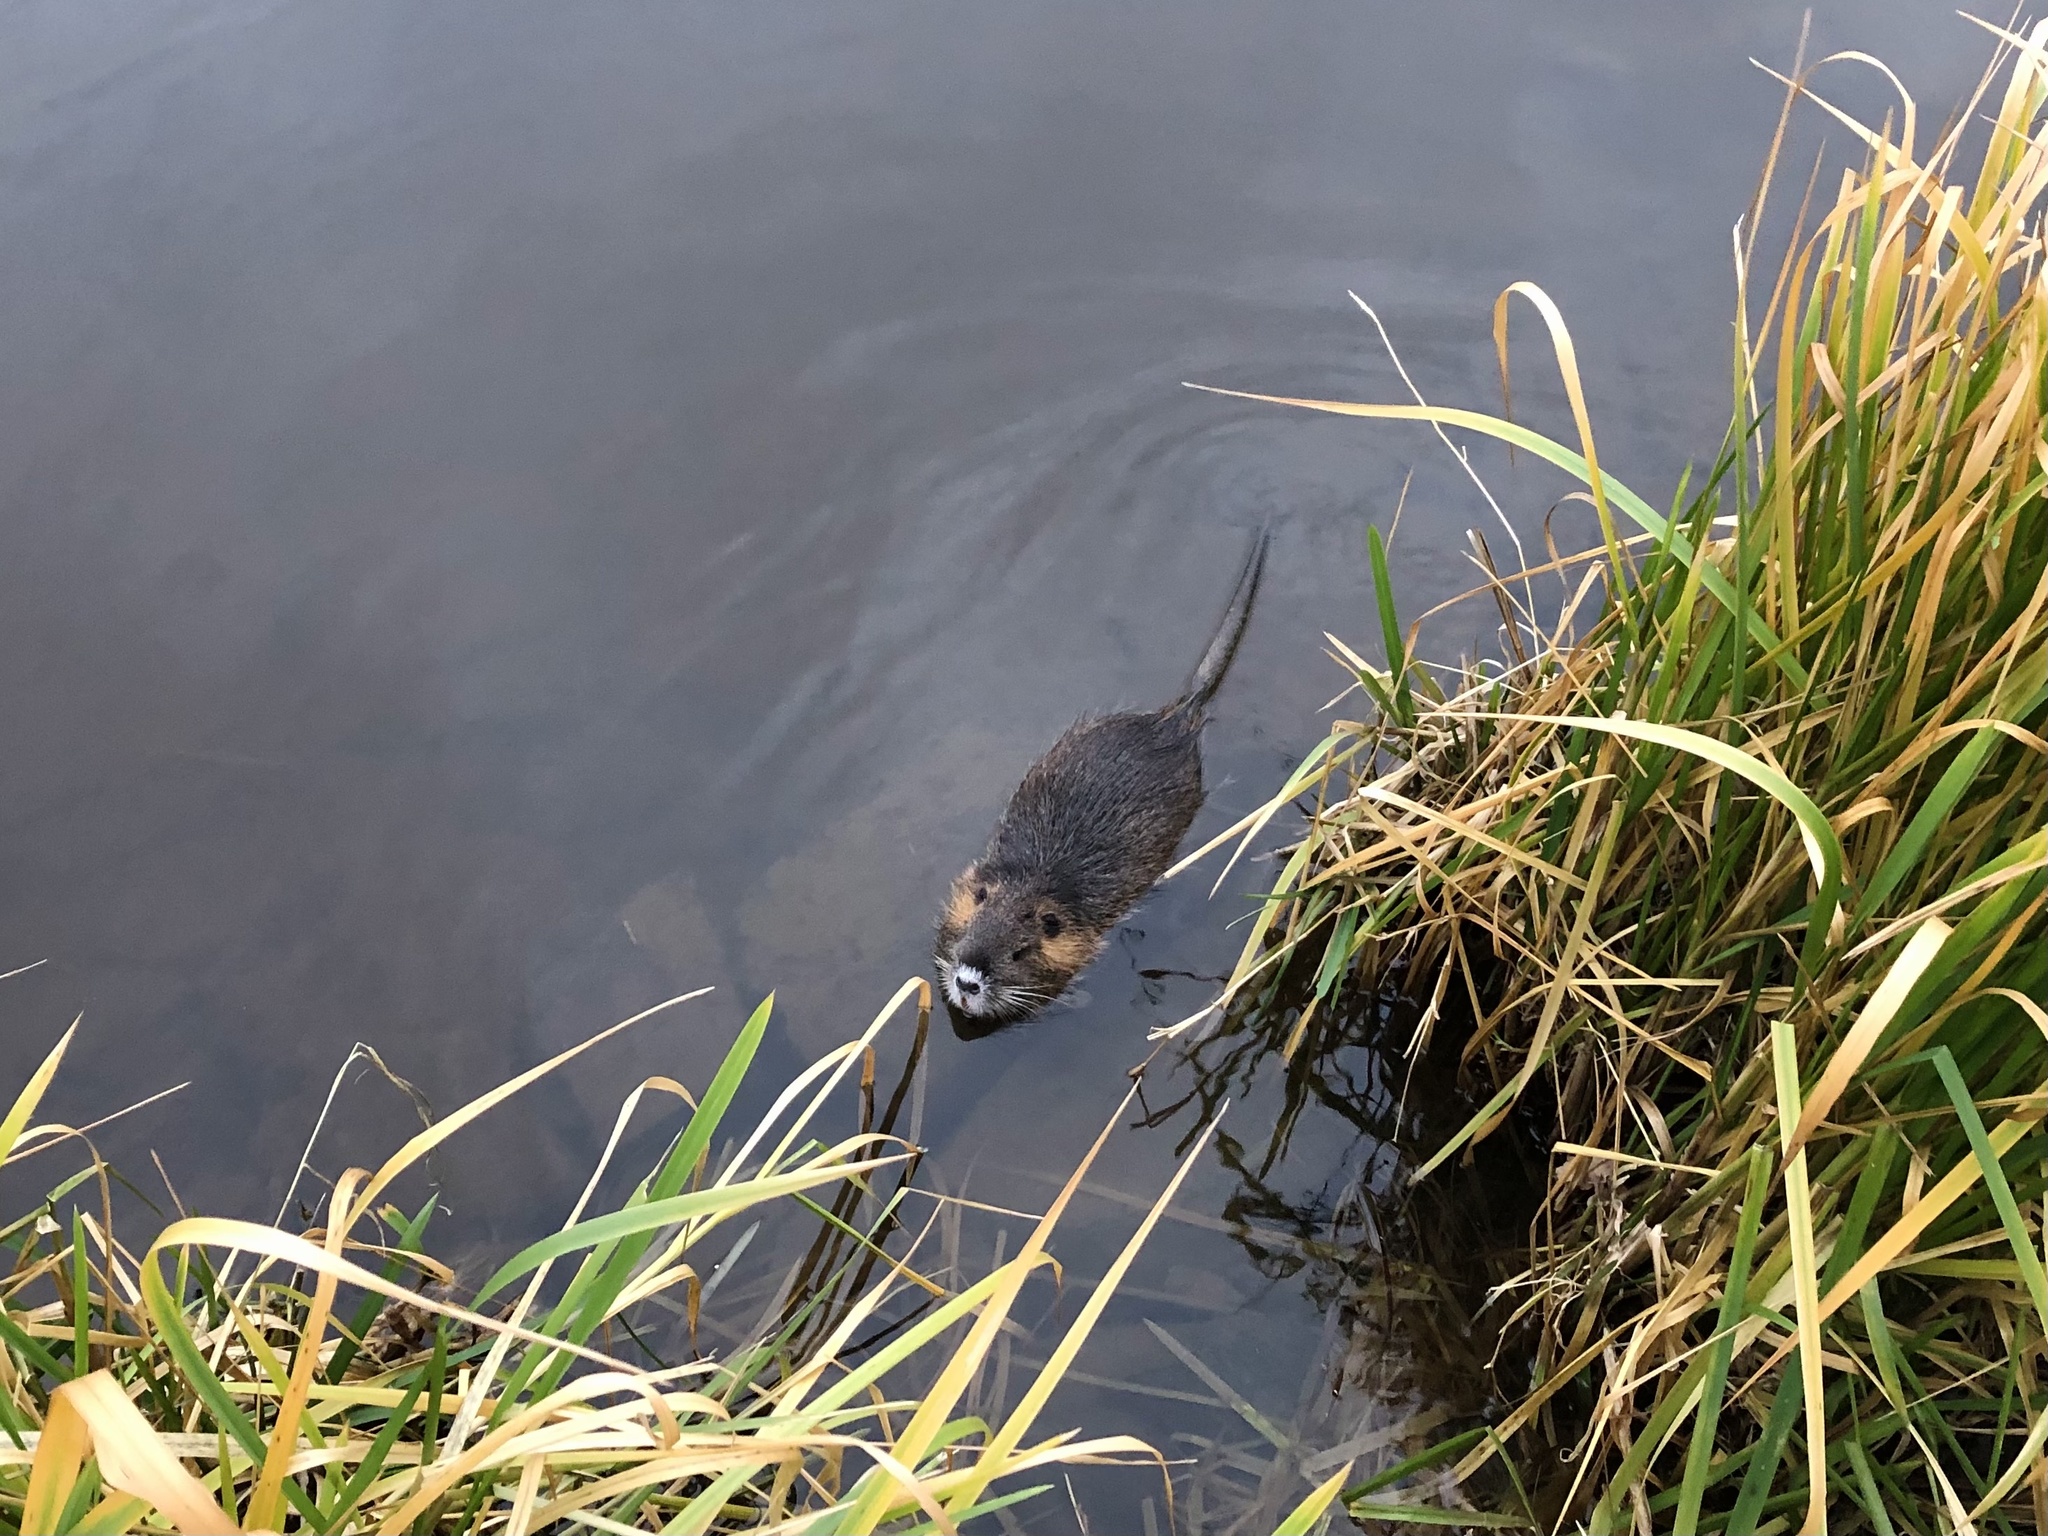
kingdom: Animalia
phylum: Chordata
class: Mammalia
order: Rodentia
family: Myocastoridae
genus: Myocastor
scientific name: Myocastor coypus
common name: Coypu
